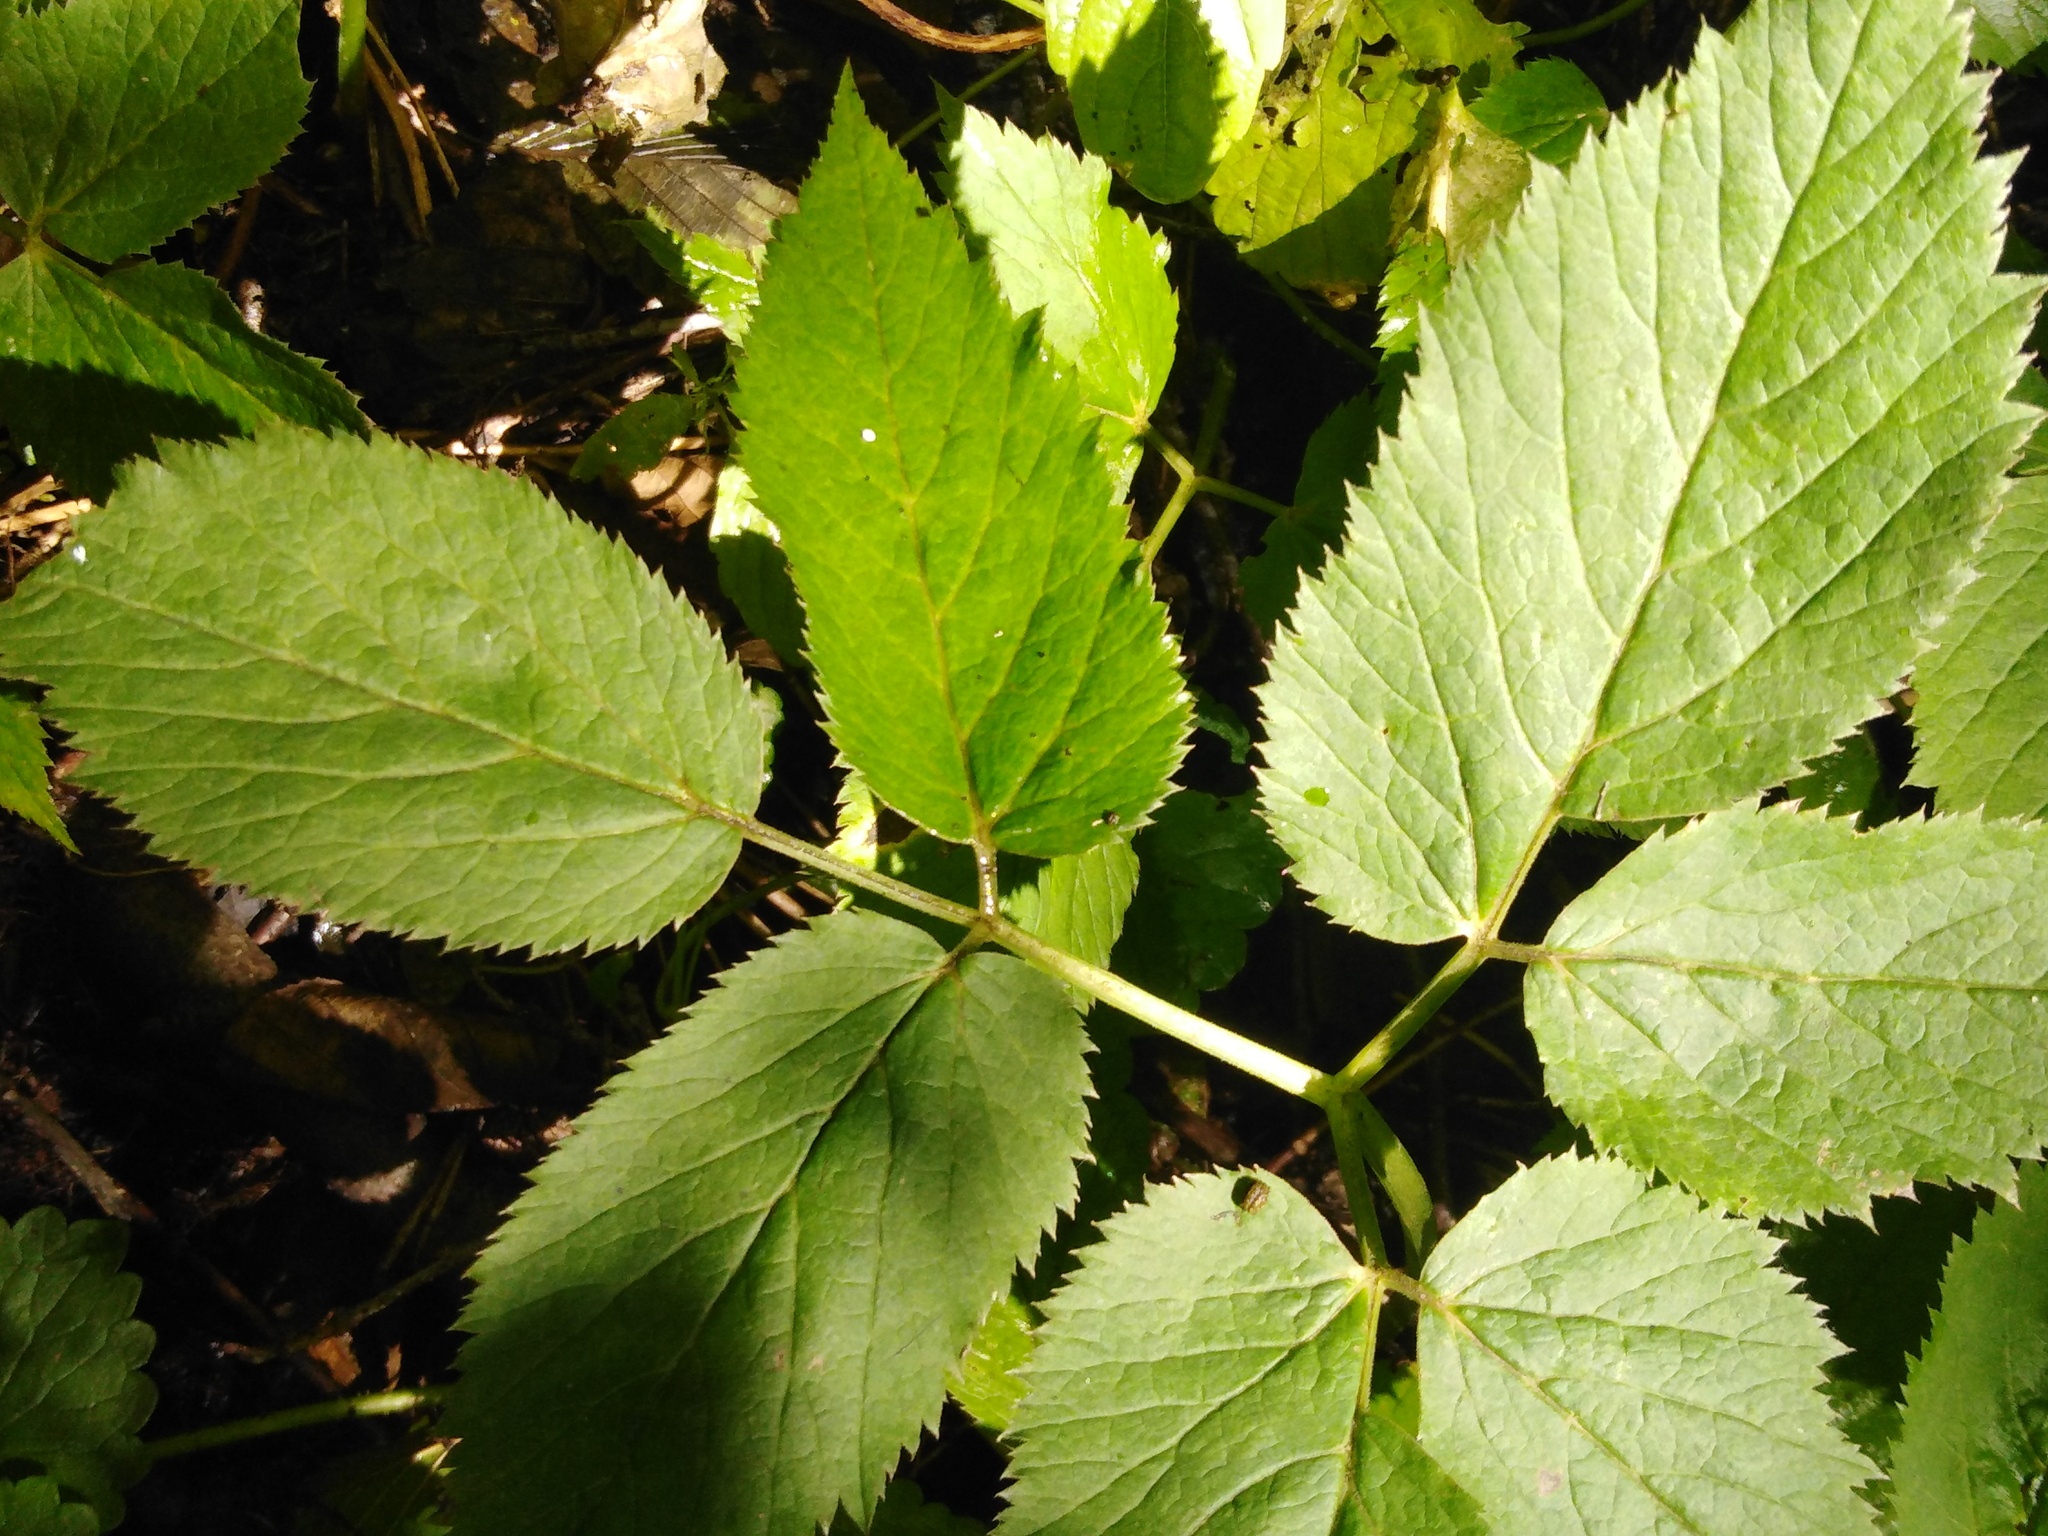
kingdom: Plantae
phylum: Tracheophyta
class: Magnoliopsida
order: Apiales
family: Apiaceae
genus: Aegopodium
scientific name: Aegopodium podagraria
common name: Ground-elder
